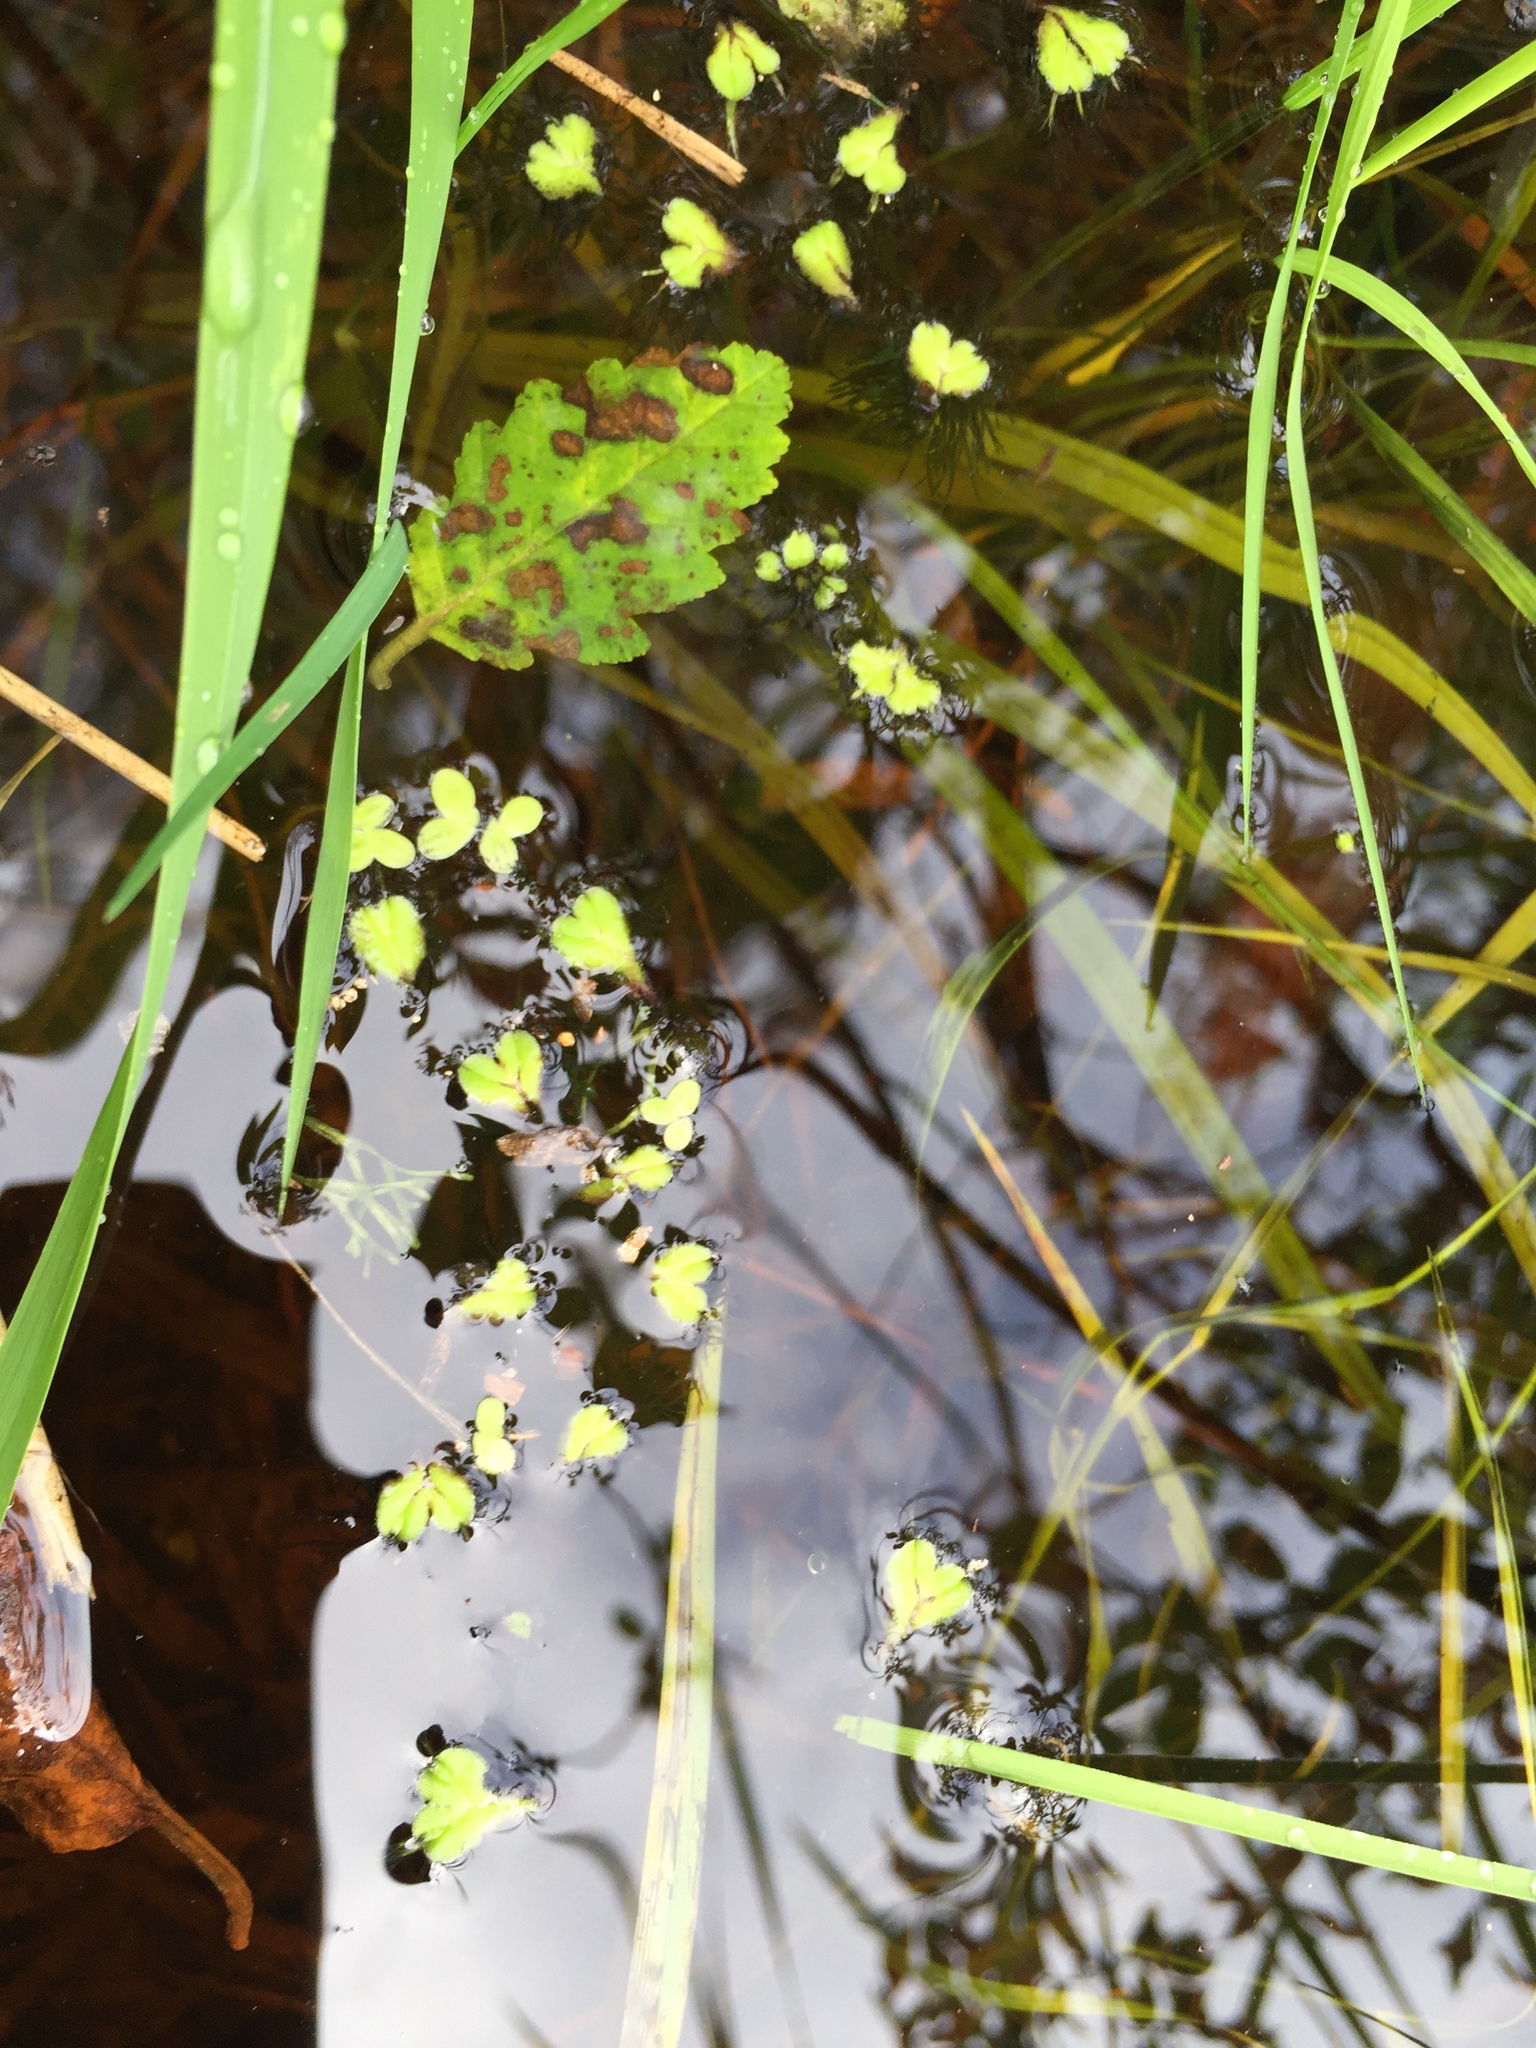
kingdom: Plantae
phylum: Marchantiophyta
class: Marchantiopsida
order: Marchantiales
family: Ricciaceae
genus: Ricciocarpos
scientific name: Ricciocarpos natans
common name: Purple-fringed liverwort
